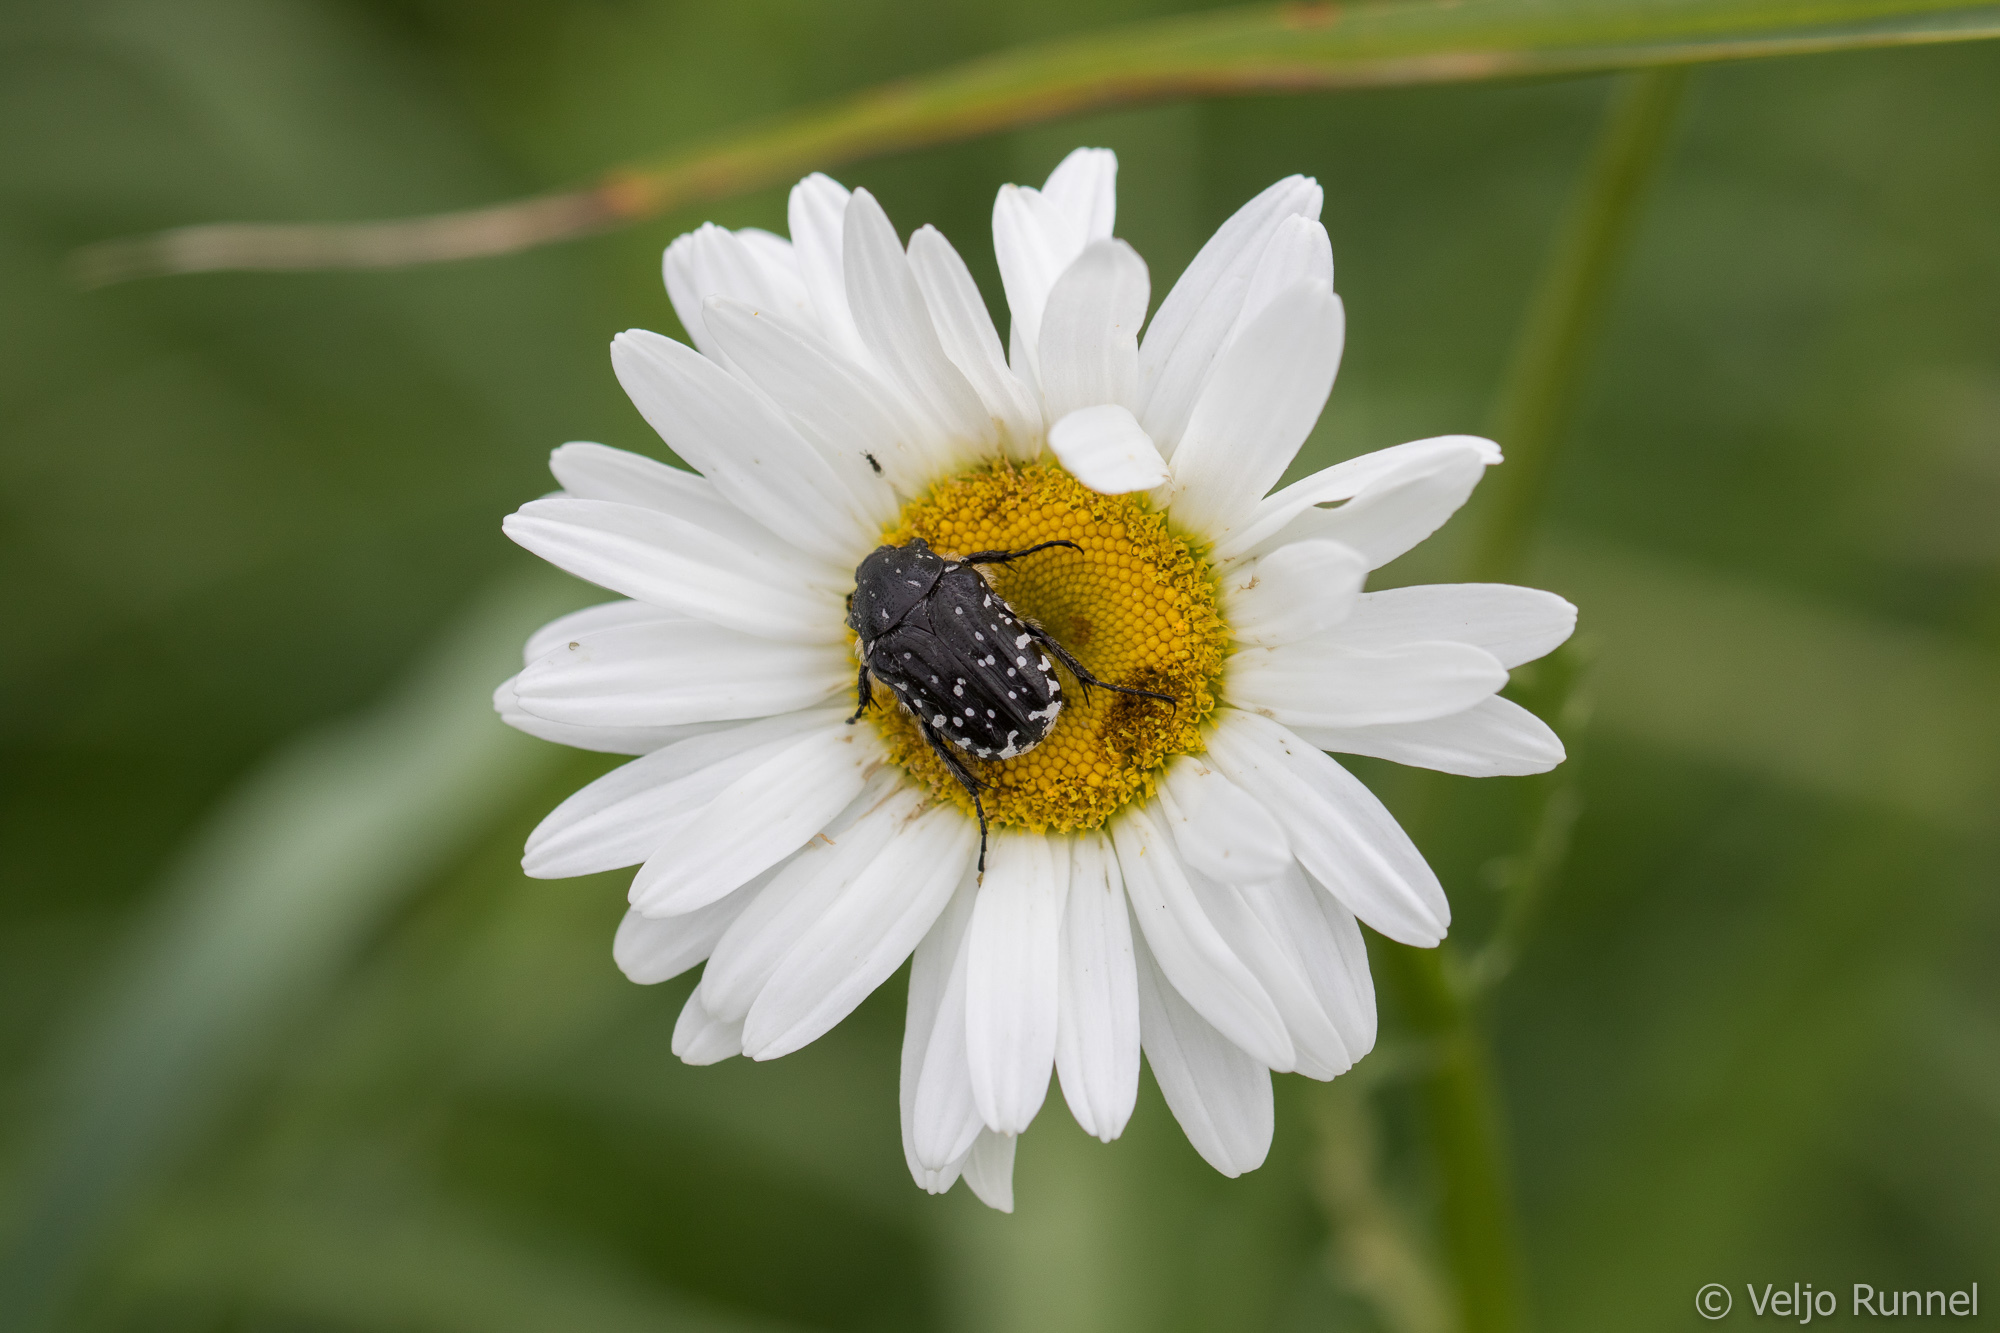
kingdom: Animalia
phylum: Arthropoda
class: Insecta
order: Coleoptera
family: Scarabaeidae
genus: Oxythyrea
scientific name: Oxythyrea funesta
